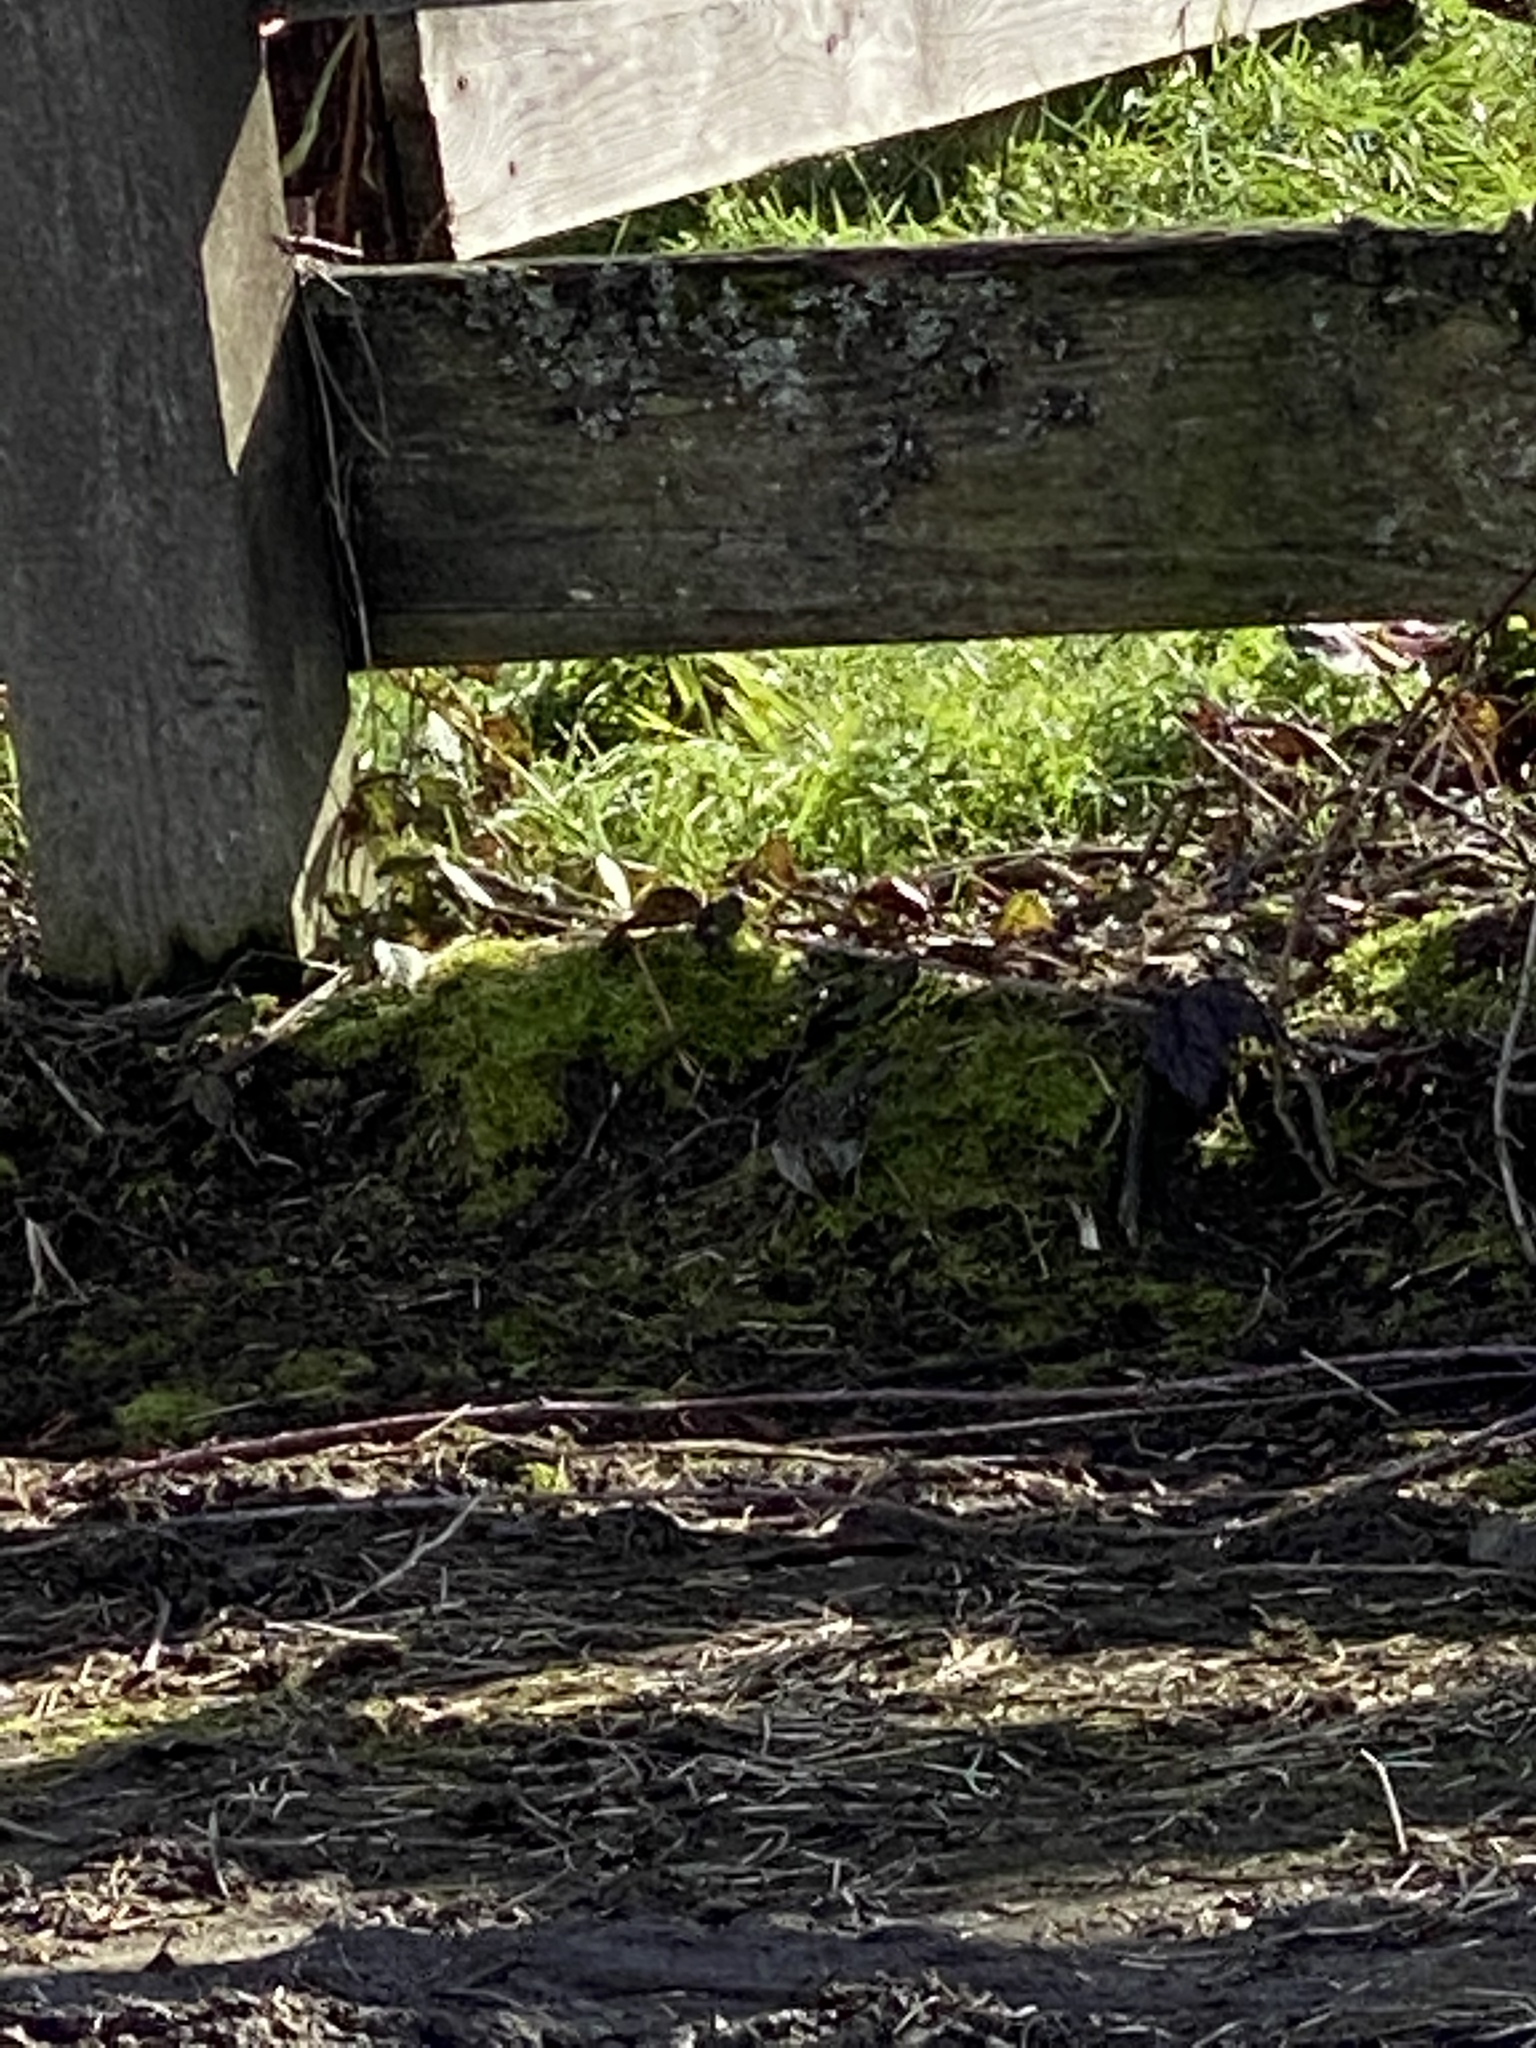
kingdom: Animalia
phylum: Chordata
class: Aves
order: Passeriformes
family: Passerellidae
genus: Zonotrichia
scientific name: Zonotrichia atricapilla
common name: Golden-crowned sparrow
